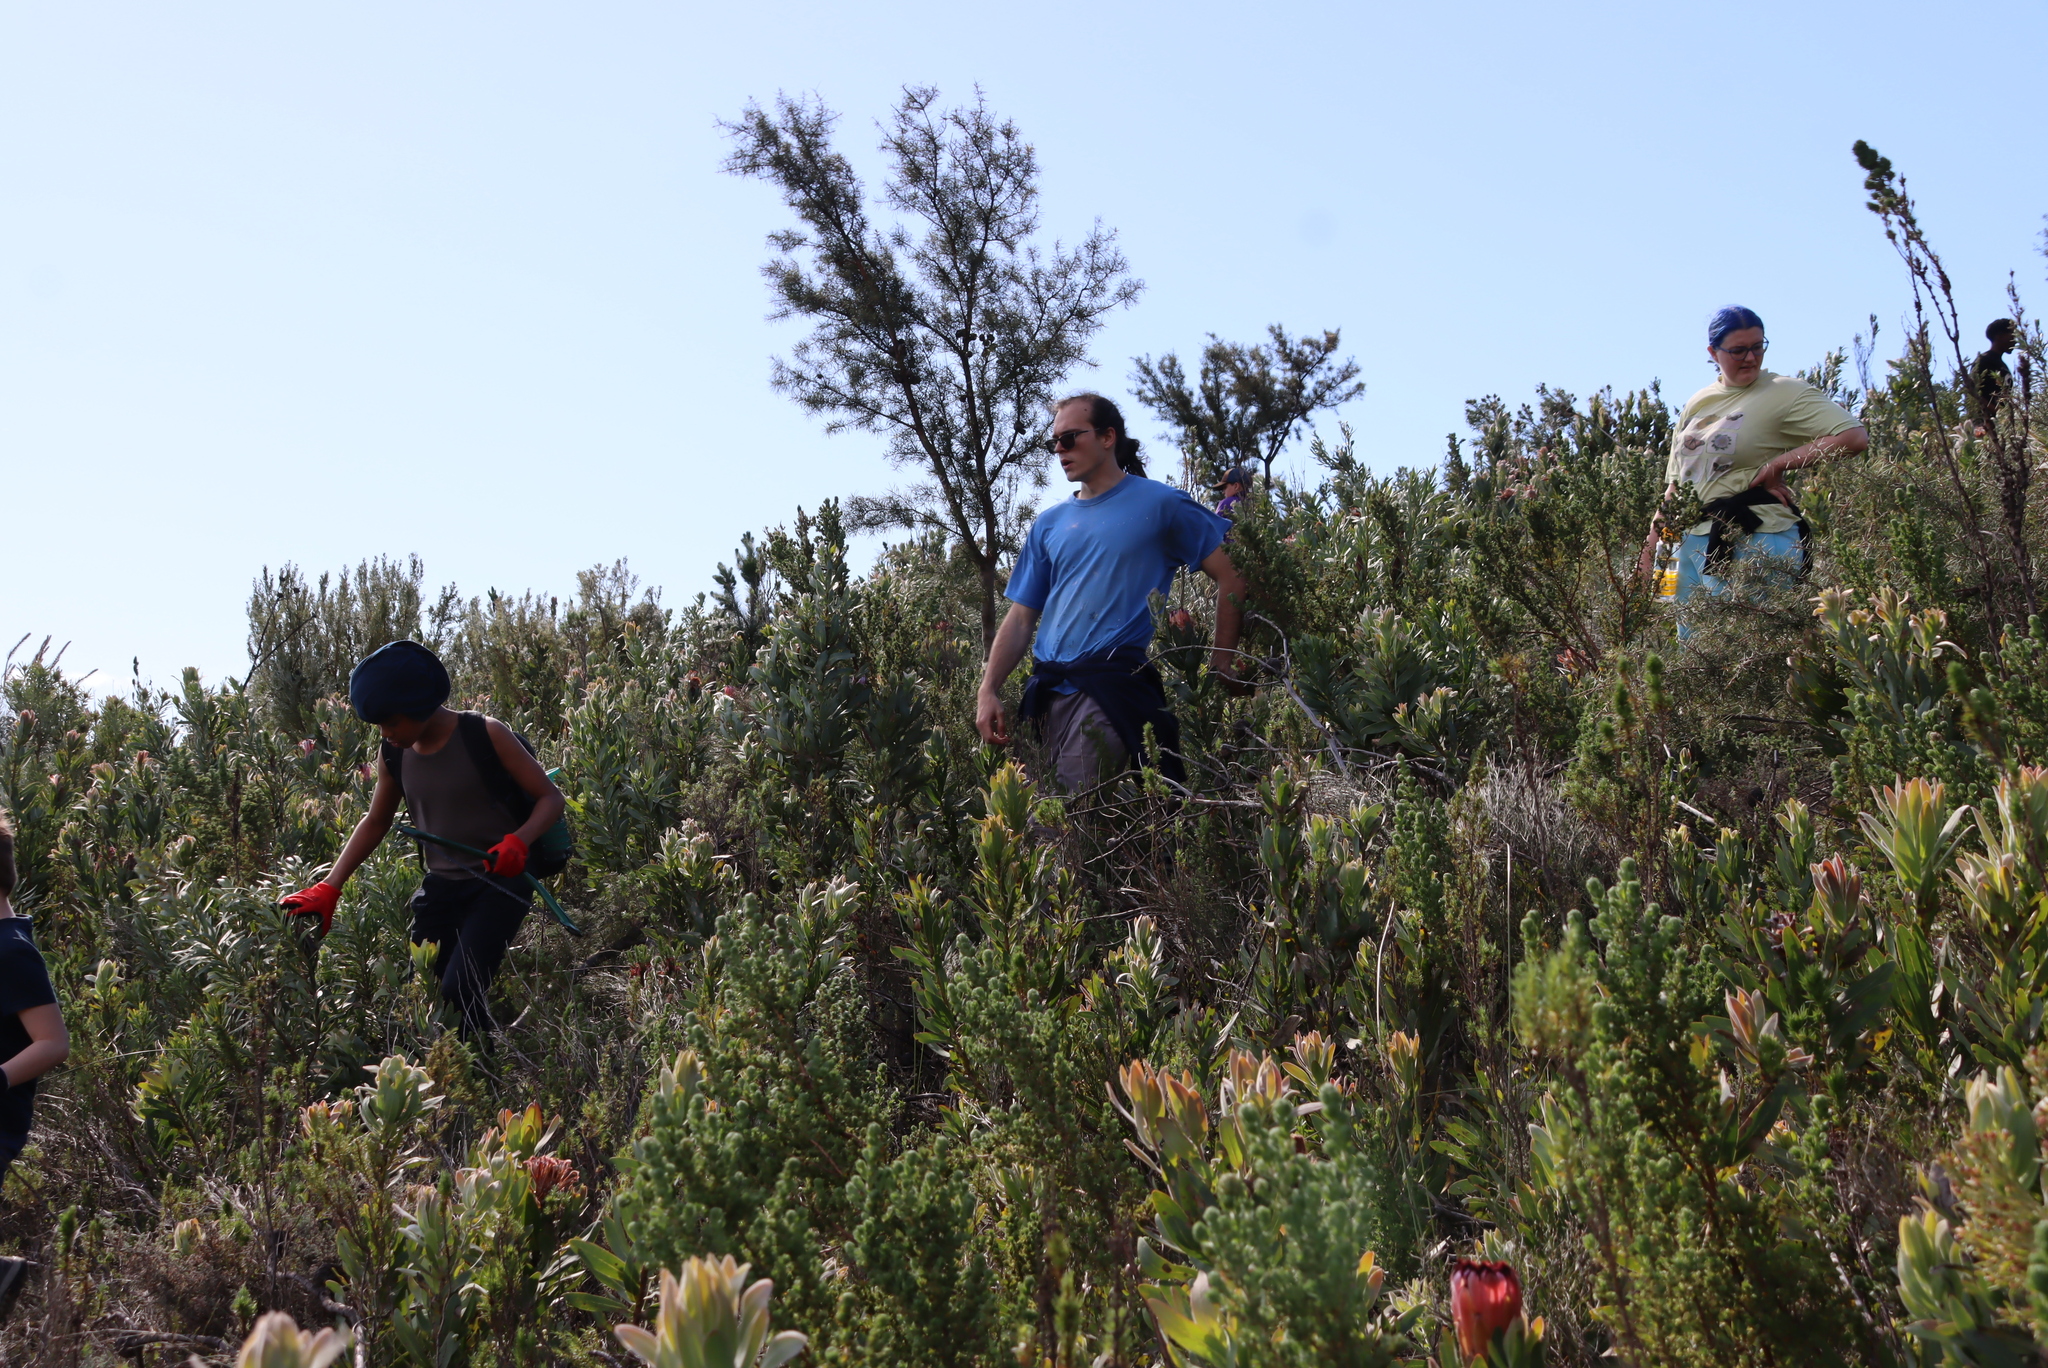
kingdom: Plantae
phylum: Tracheophyta
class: Magnoliopsida
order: Proteales
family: Proteaceae
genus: Hakea
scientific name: Hakea sericea
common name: Needle bush
